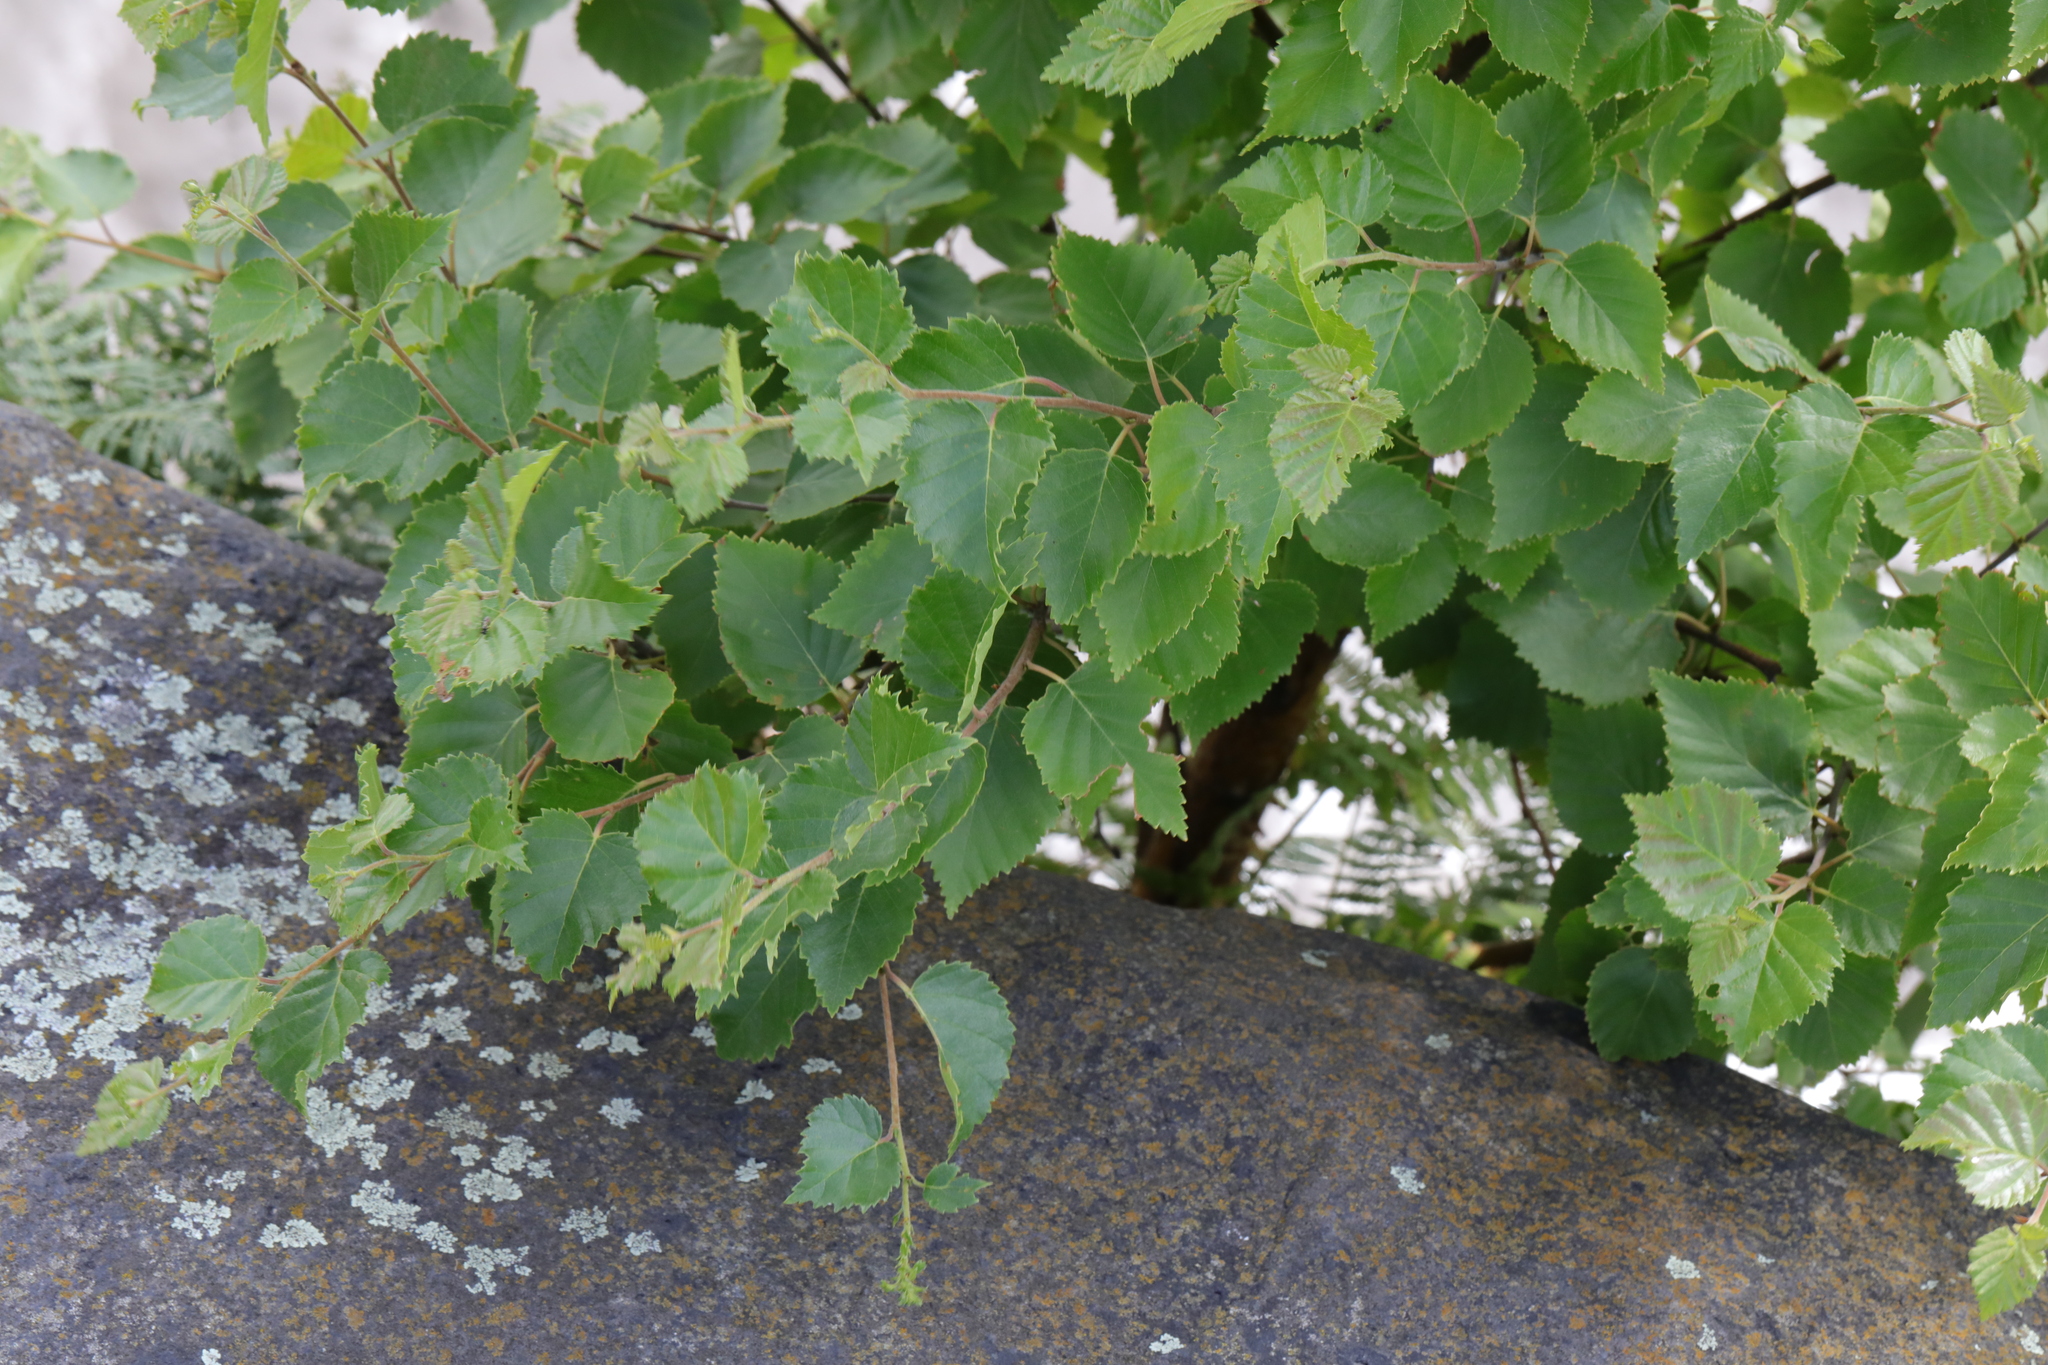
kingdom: Plantae
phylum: Tracheophyta
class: Magnoliopsida
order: Fagales
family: Betulaceae
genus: Betula
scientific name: Betula pubescens
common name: Downy birch
